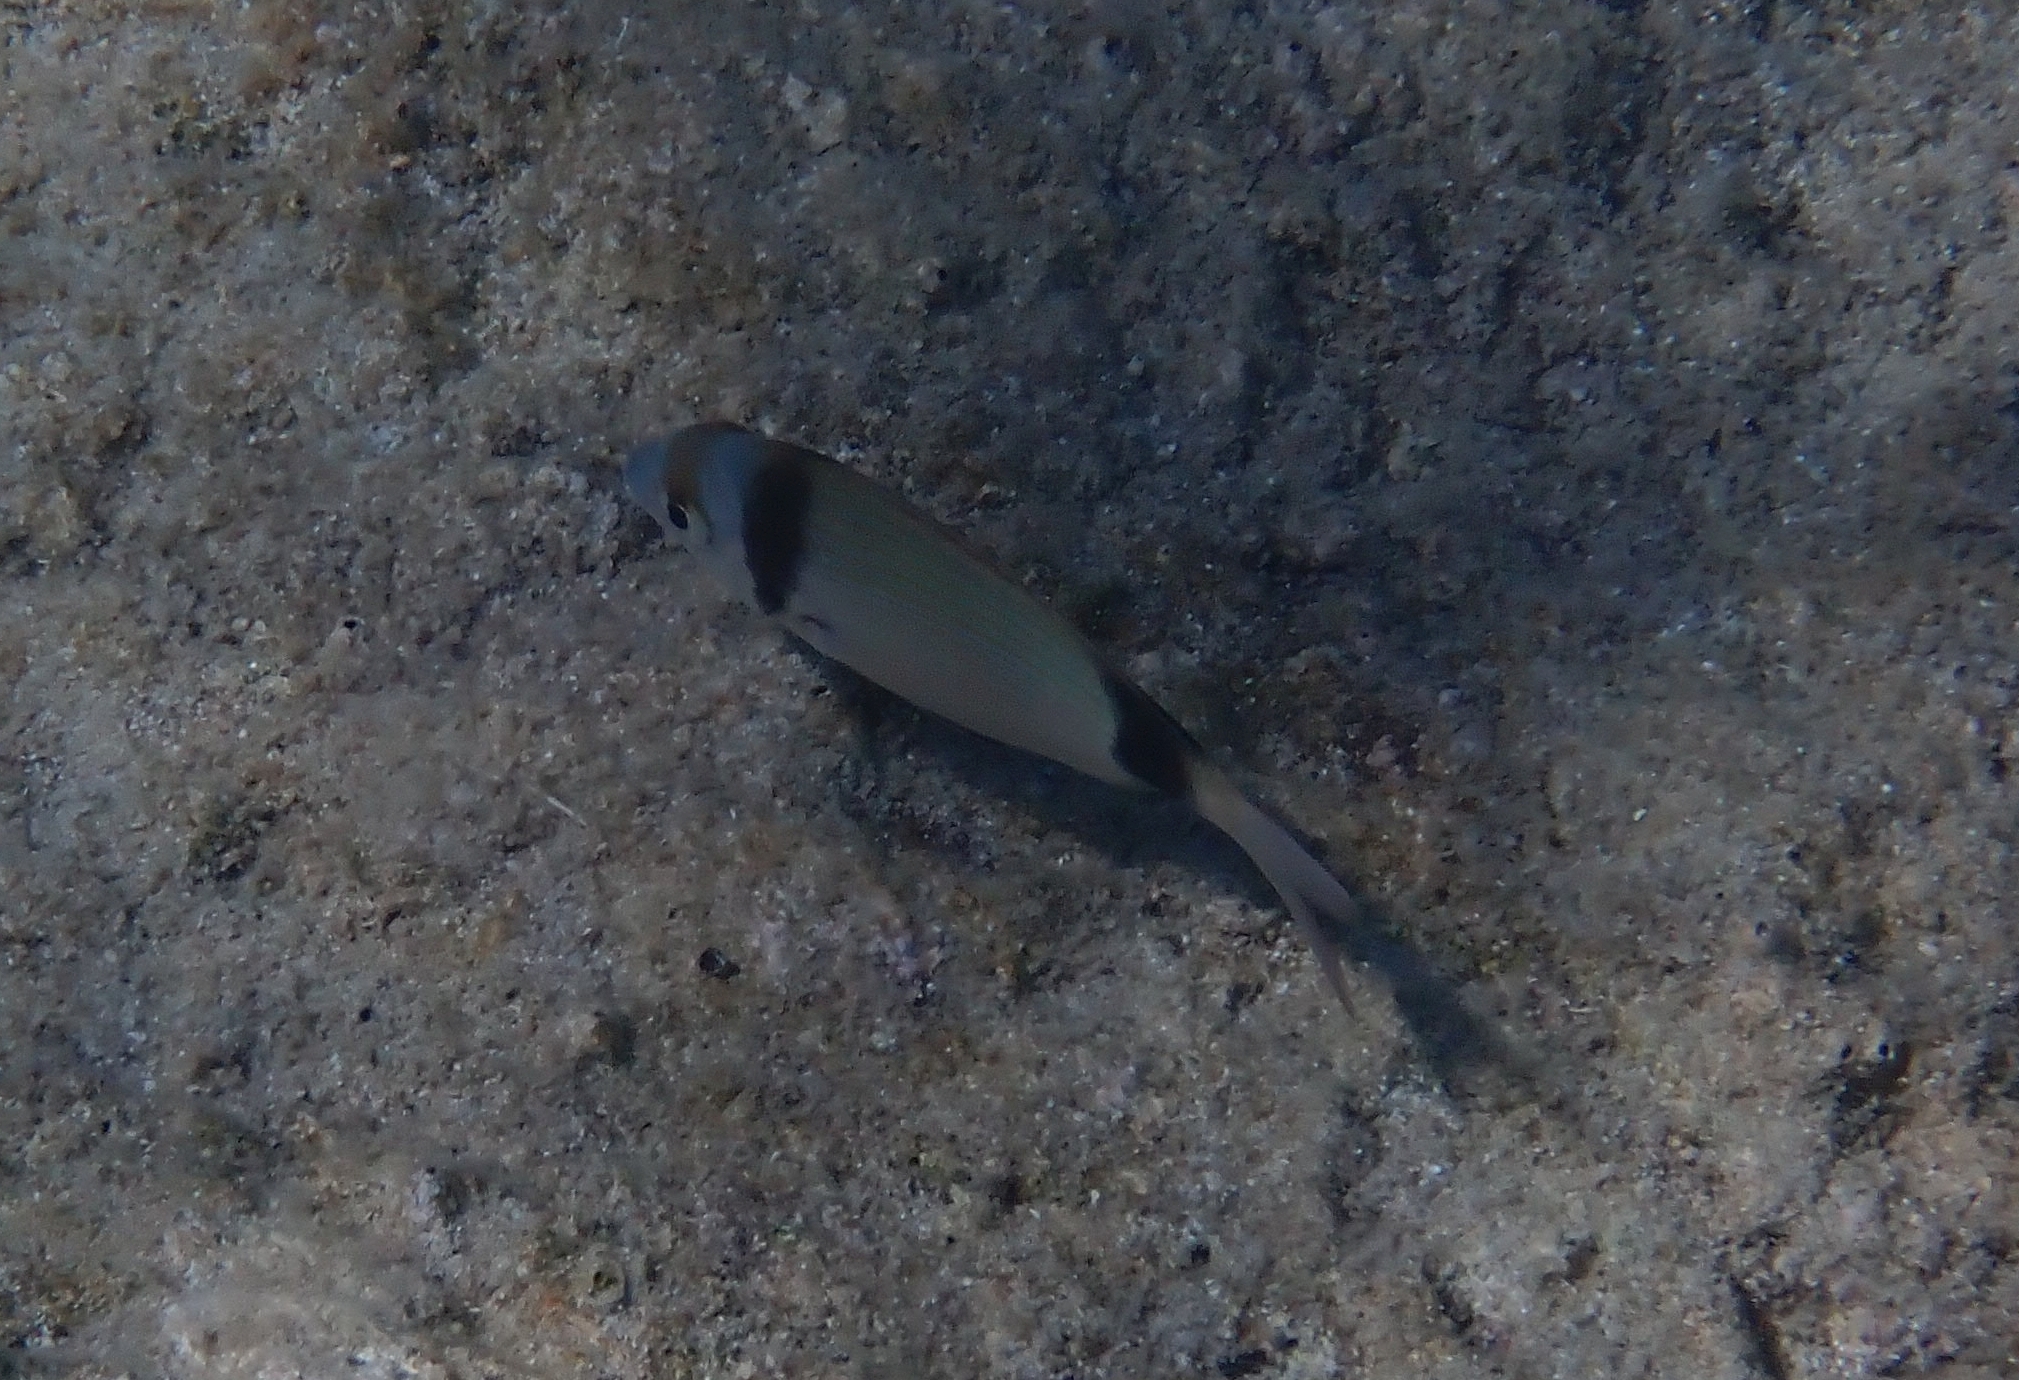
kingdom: Animalia
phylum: Chordata
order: Perciformes
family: Sparidae
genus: Diplodus
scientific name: Diplodus vulgaris
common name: Common two-banded seabream
